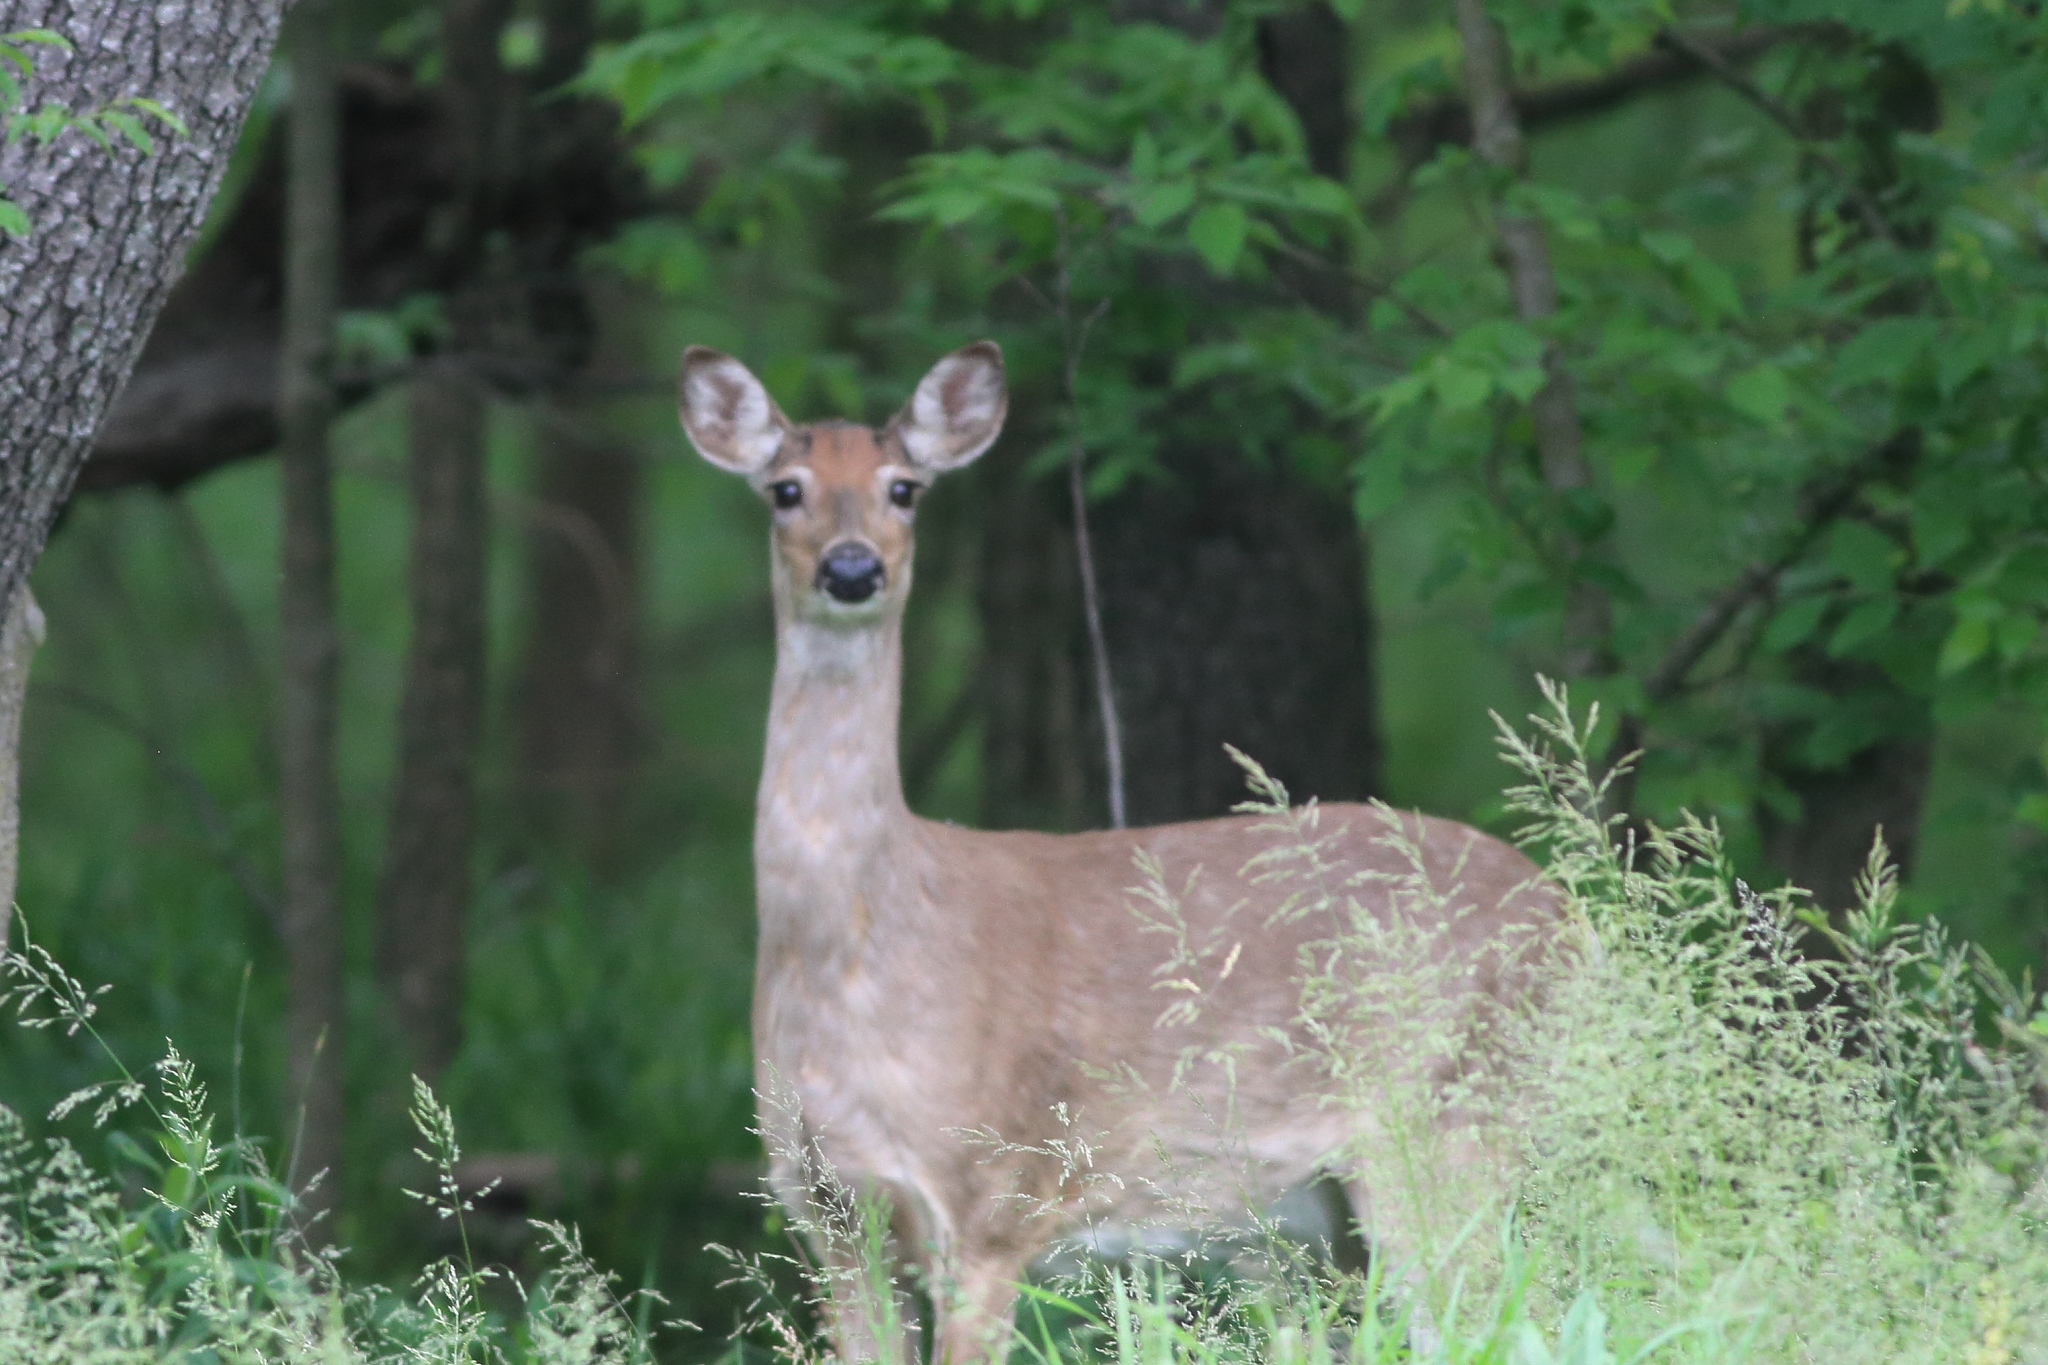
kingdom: Animalia
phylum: Chordata
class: Mammalia
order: Artiodactyla
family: Cervidae
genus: Odocoileus
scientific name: Odocoileus virginianus
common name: White-tailed deer
